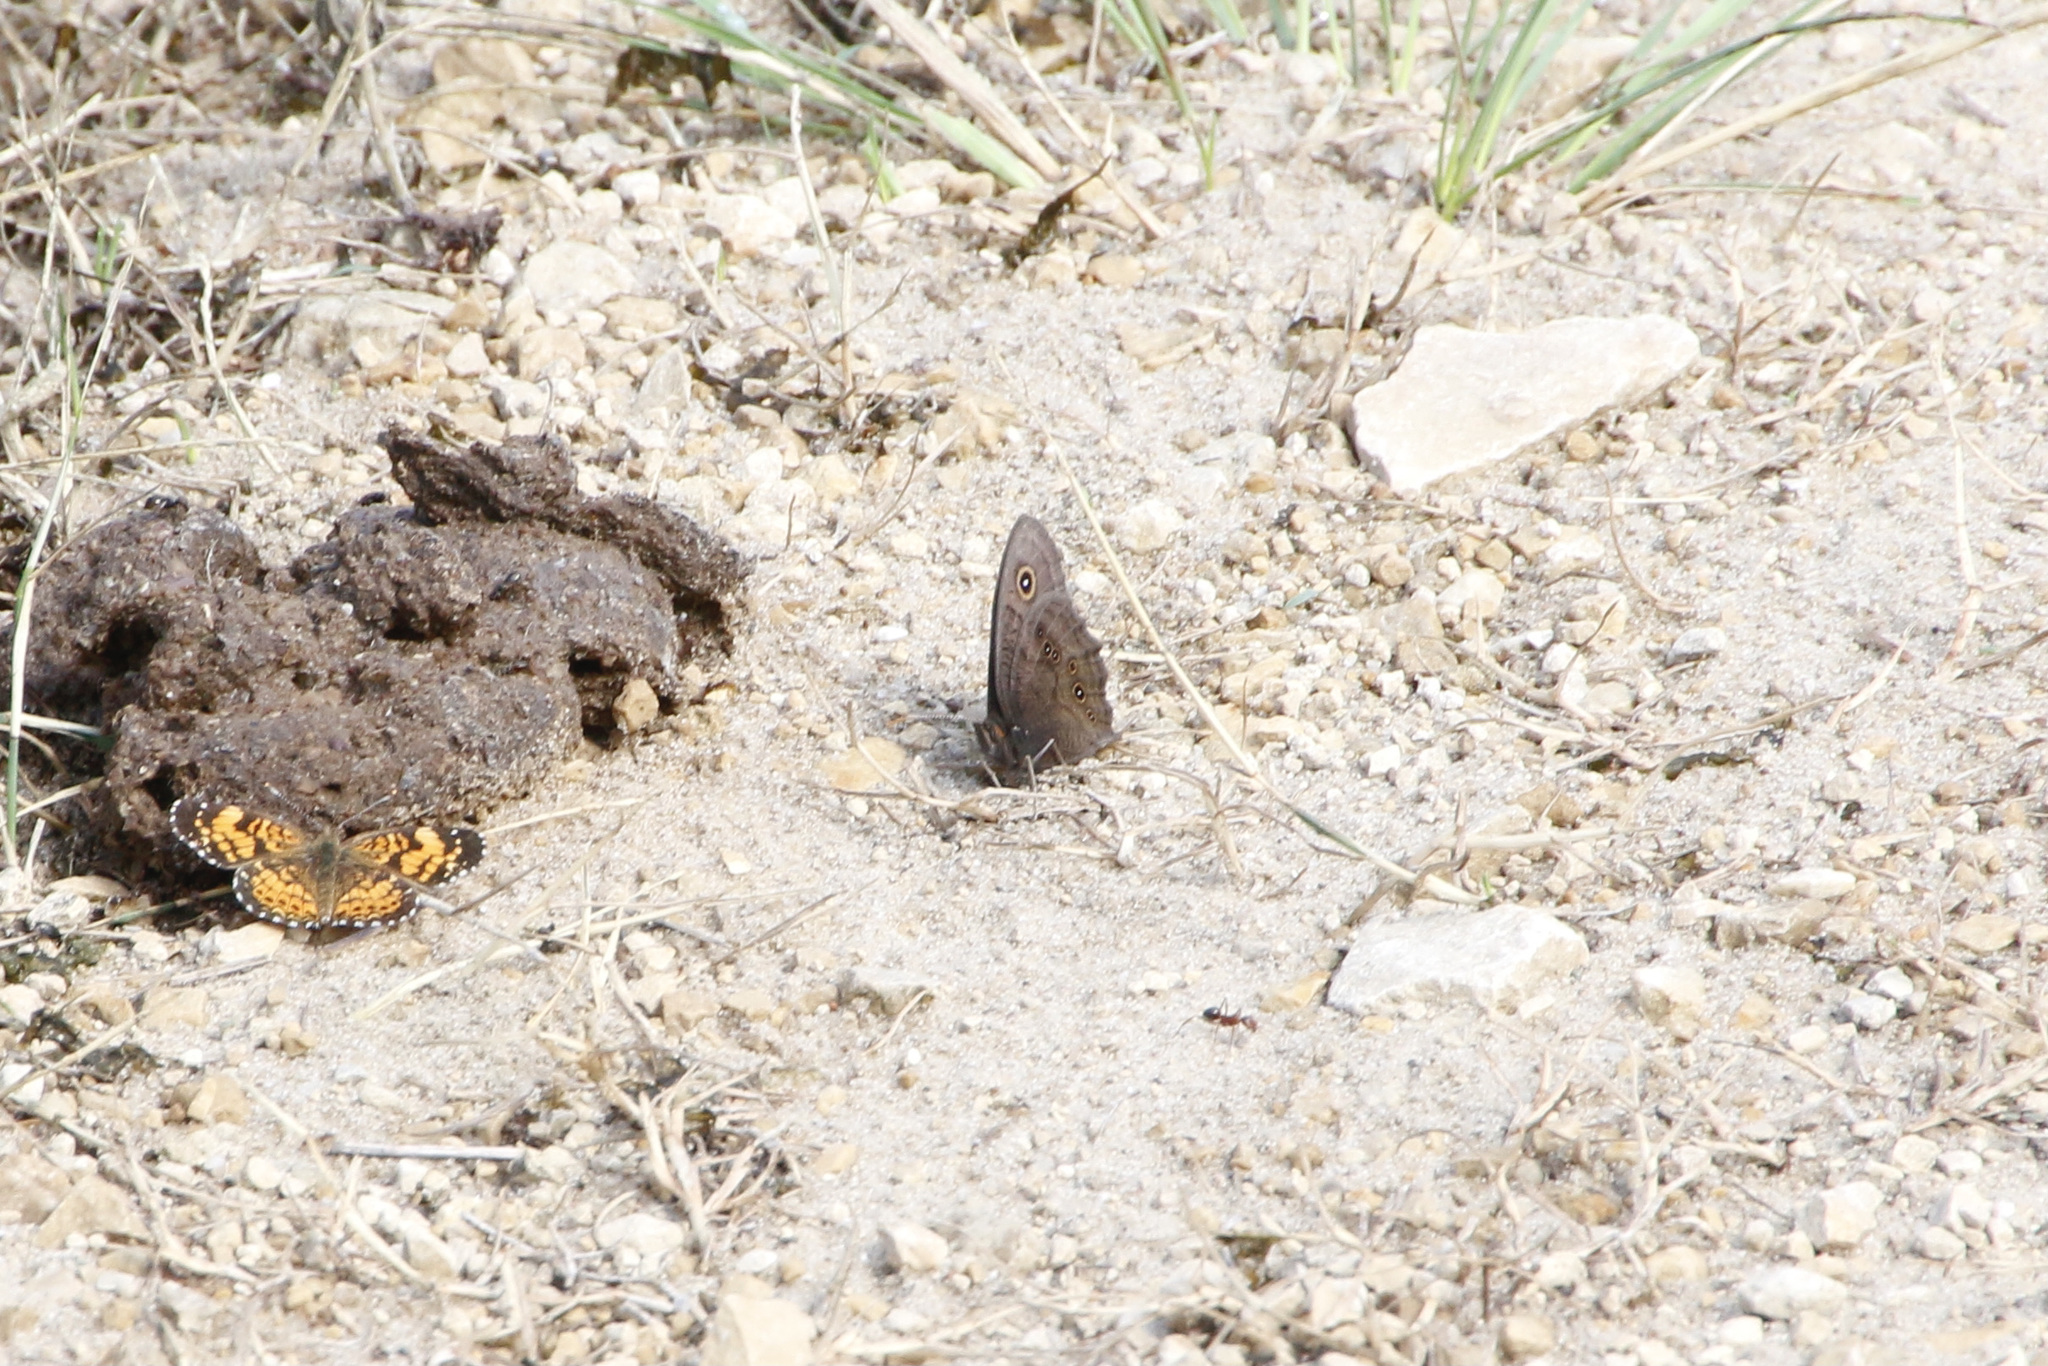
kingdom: Animalia
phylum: Arthropoda
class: Insecta
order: Lepidoptera
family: Nymphalidae
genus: Cercyonis
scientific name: Cercyonis pegala
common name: Common wood-nymph
